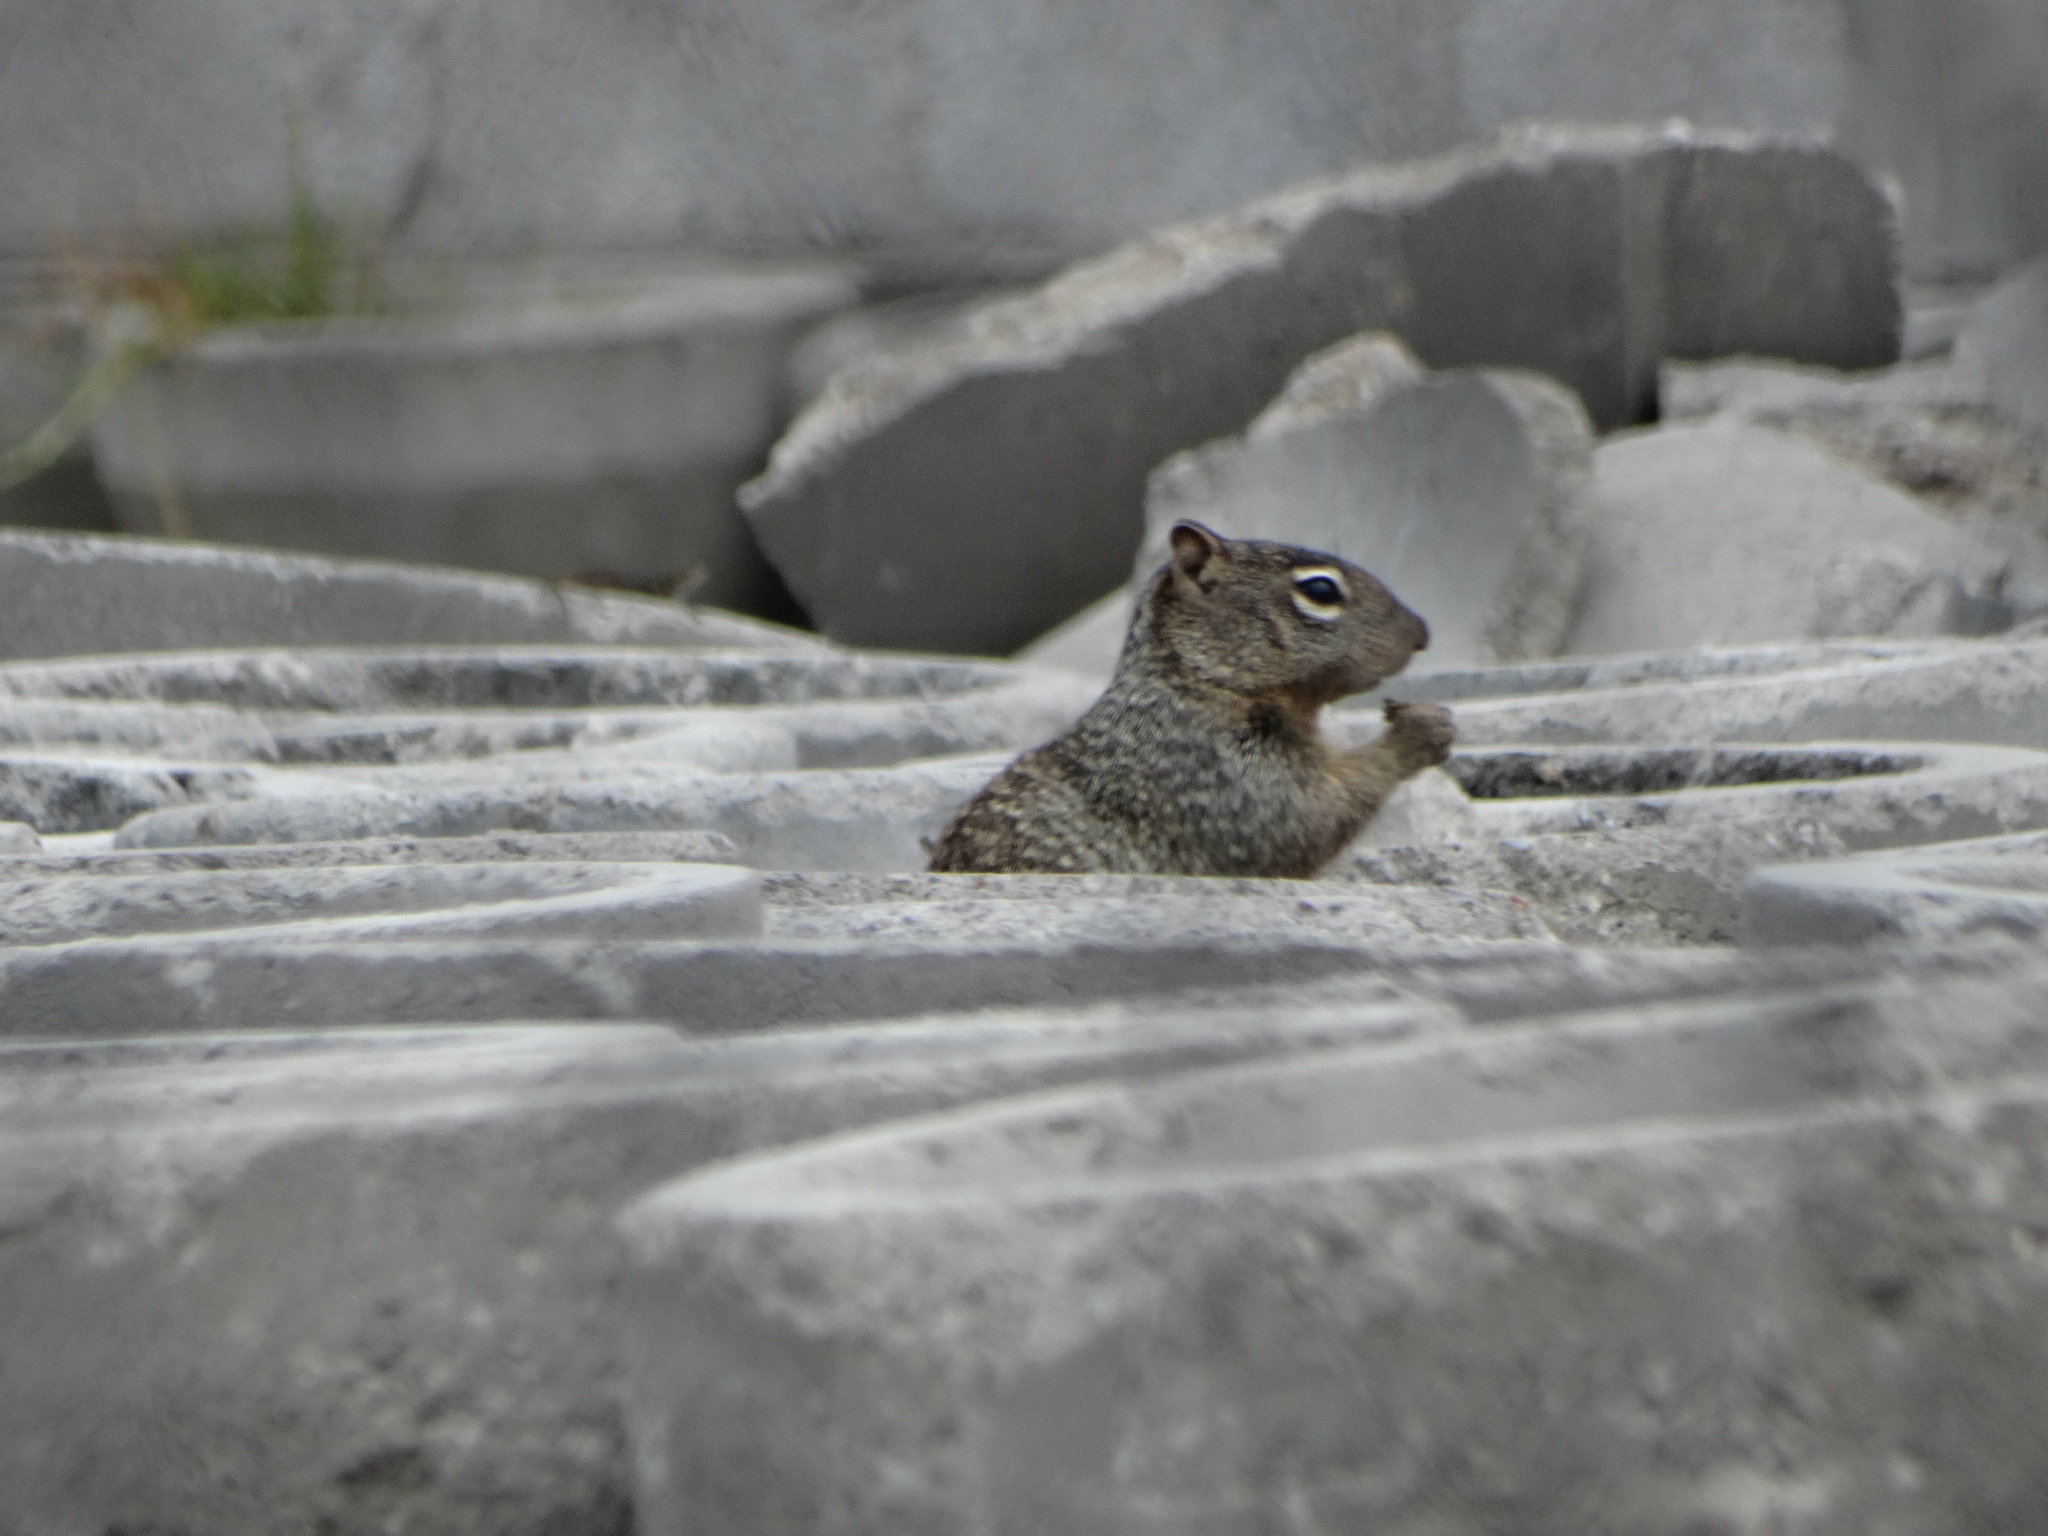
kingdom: Animalia
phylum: Chordata
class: Mammalia
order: Rodentia
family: Sciuridae
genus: Otospermophilus
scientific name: Otospermophilus variegatus
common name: Rock squirrel
